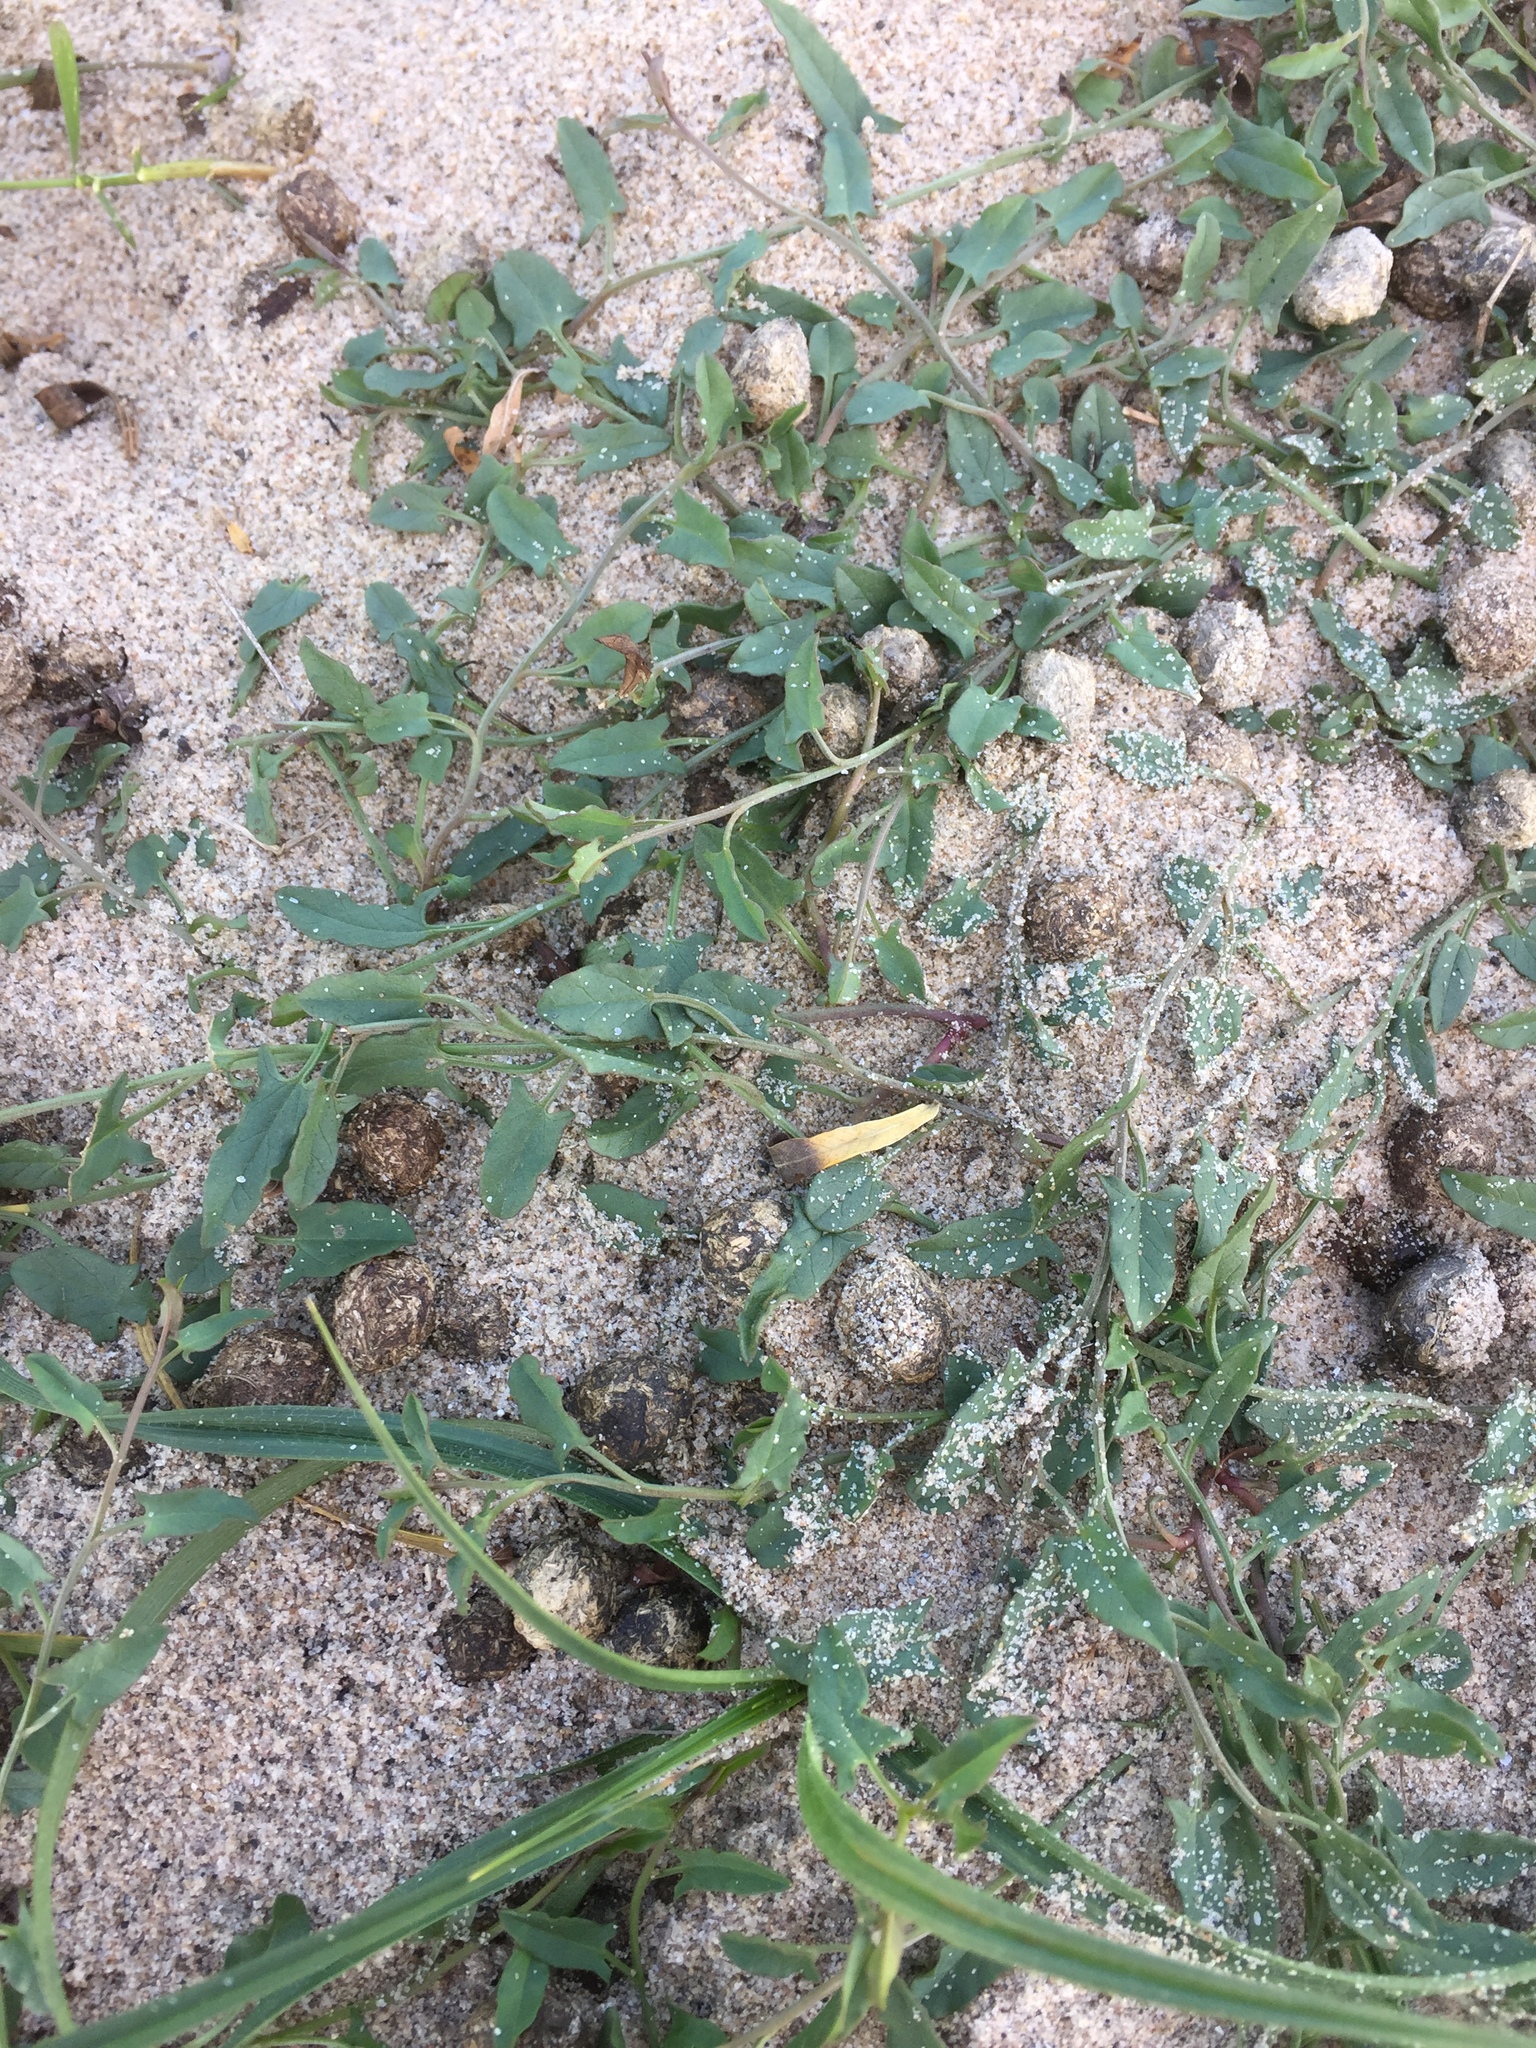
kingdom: Plantae
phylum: Tracheophyta
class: Magnoliopsida
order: Solanales
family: Convolvulaceae
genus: Convolvulus
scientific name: Convolvulus arvensis
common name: Field bindweed
